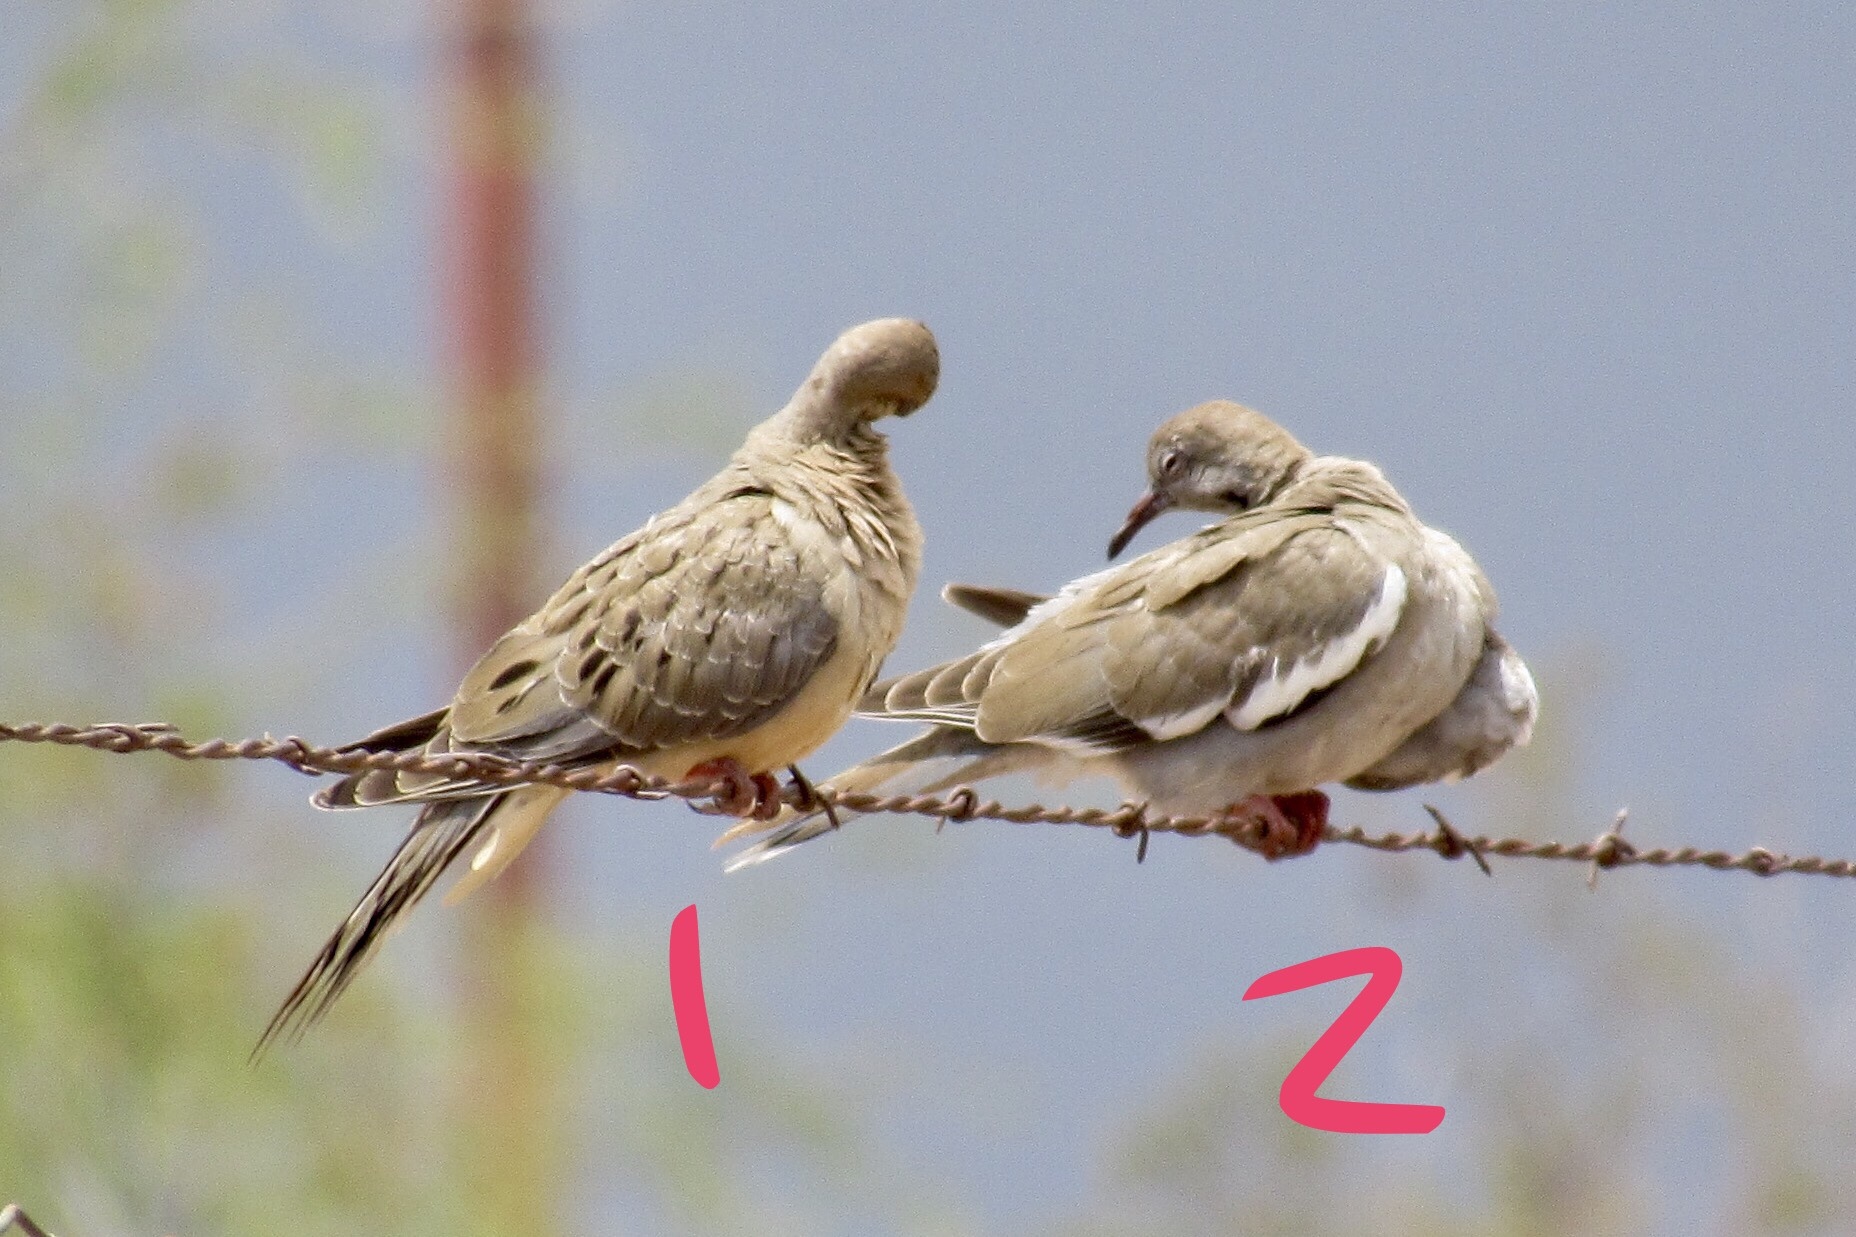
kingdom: Animalia
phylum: Chordata
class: Aves
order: Columbiformes
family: Columbidae
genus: Zenaida
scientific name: Zenaida asiatica
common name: White-winged dove
